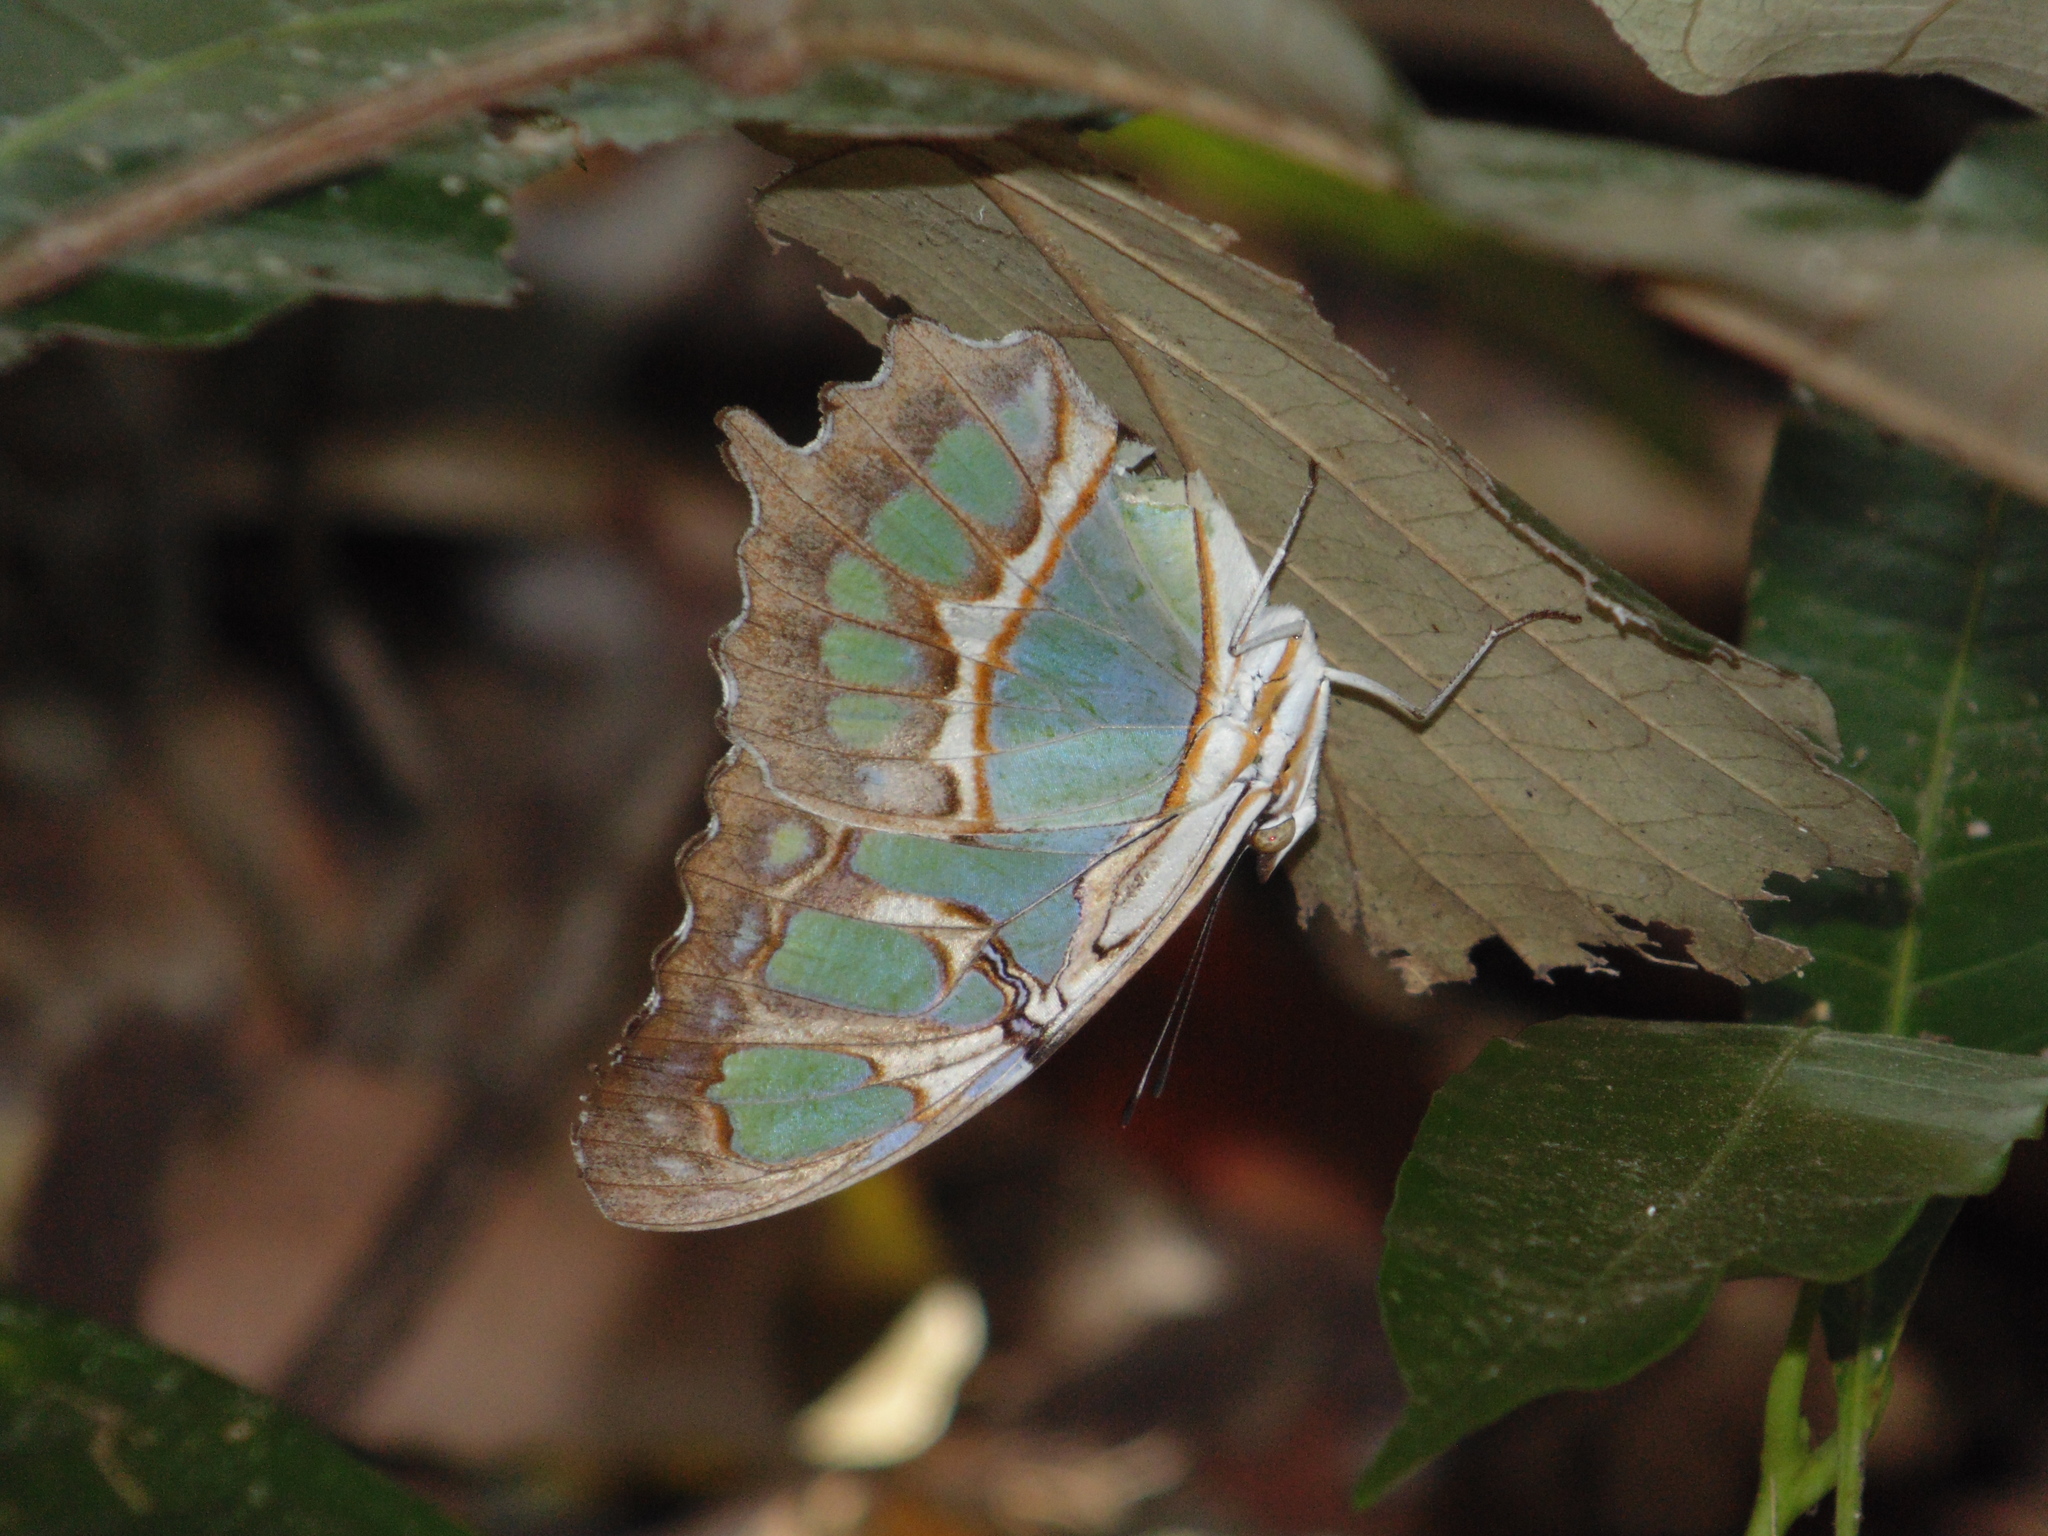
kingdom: Animalia
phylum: Arthropoda
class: Insecta
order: Lepidoptera
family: Nymphalidae
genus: Siproeta
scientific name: Siproeta stelenes
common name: Malachite
